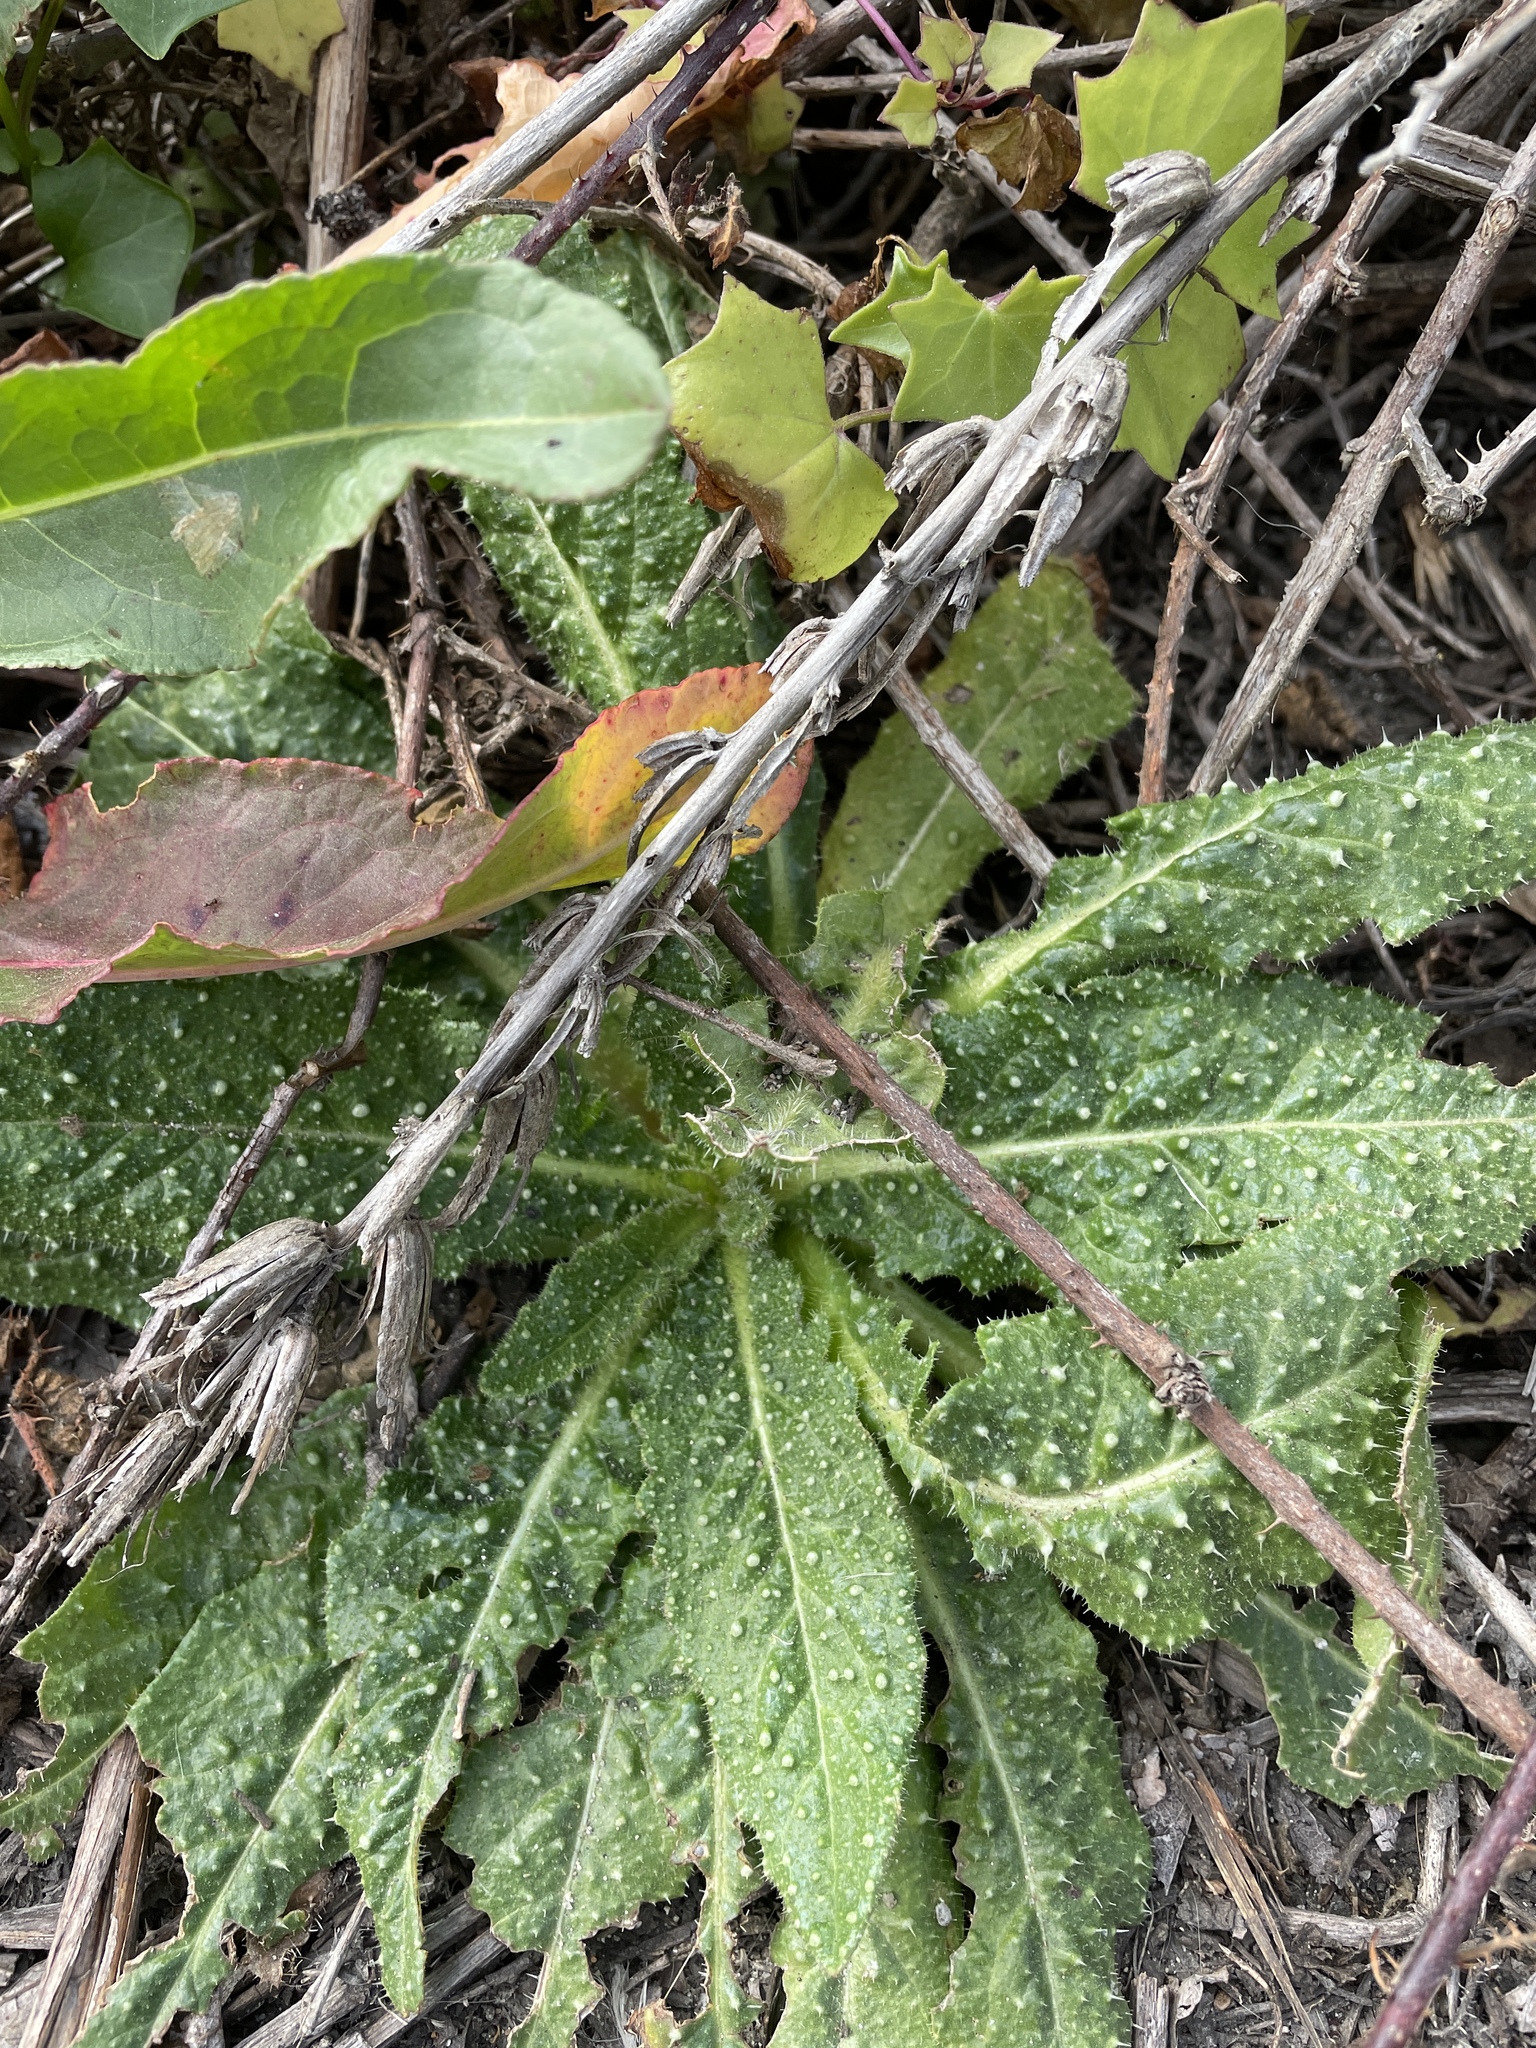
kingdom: Plantae
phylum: Tracheophyta
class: Magnoliopsida
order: Asterales
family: Asteraceae
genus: Helminthotheca
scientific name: Helminthotheca echioides
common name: Ox-tongue
